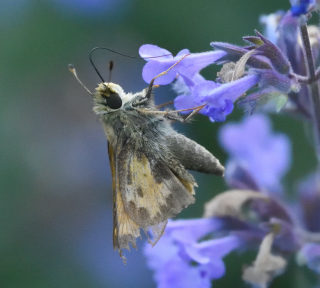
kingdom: Animalia
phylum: Arthropoda
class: Insecta
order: Lepidoptera
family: Hesperiidae
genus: Atalopedes
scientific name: Atalopedes
